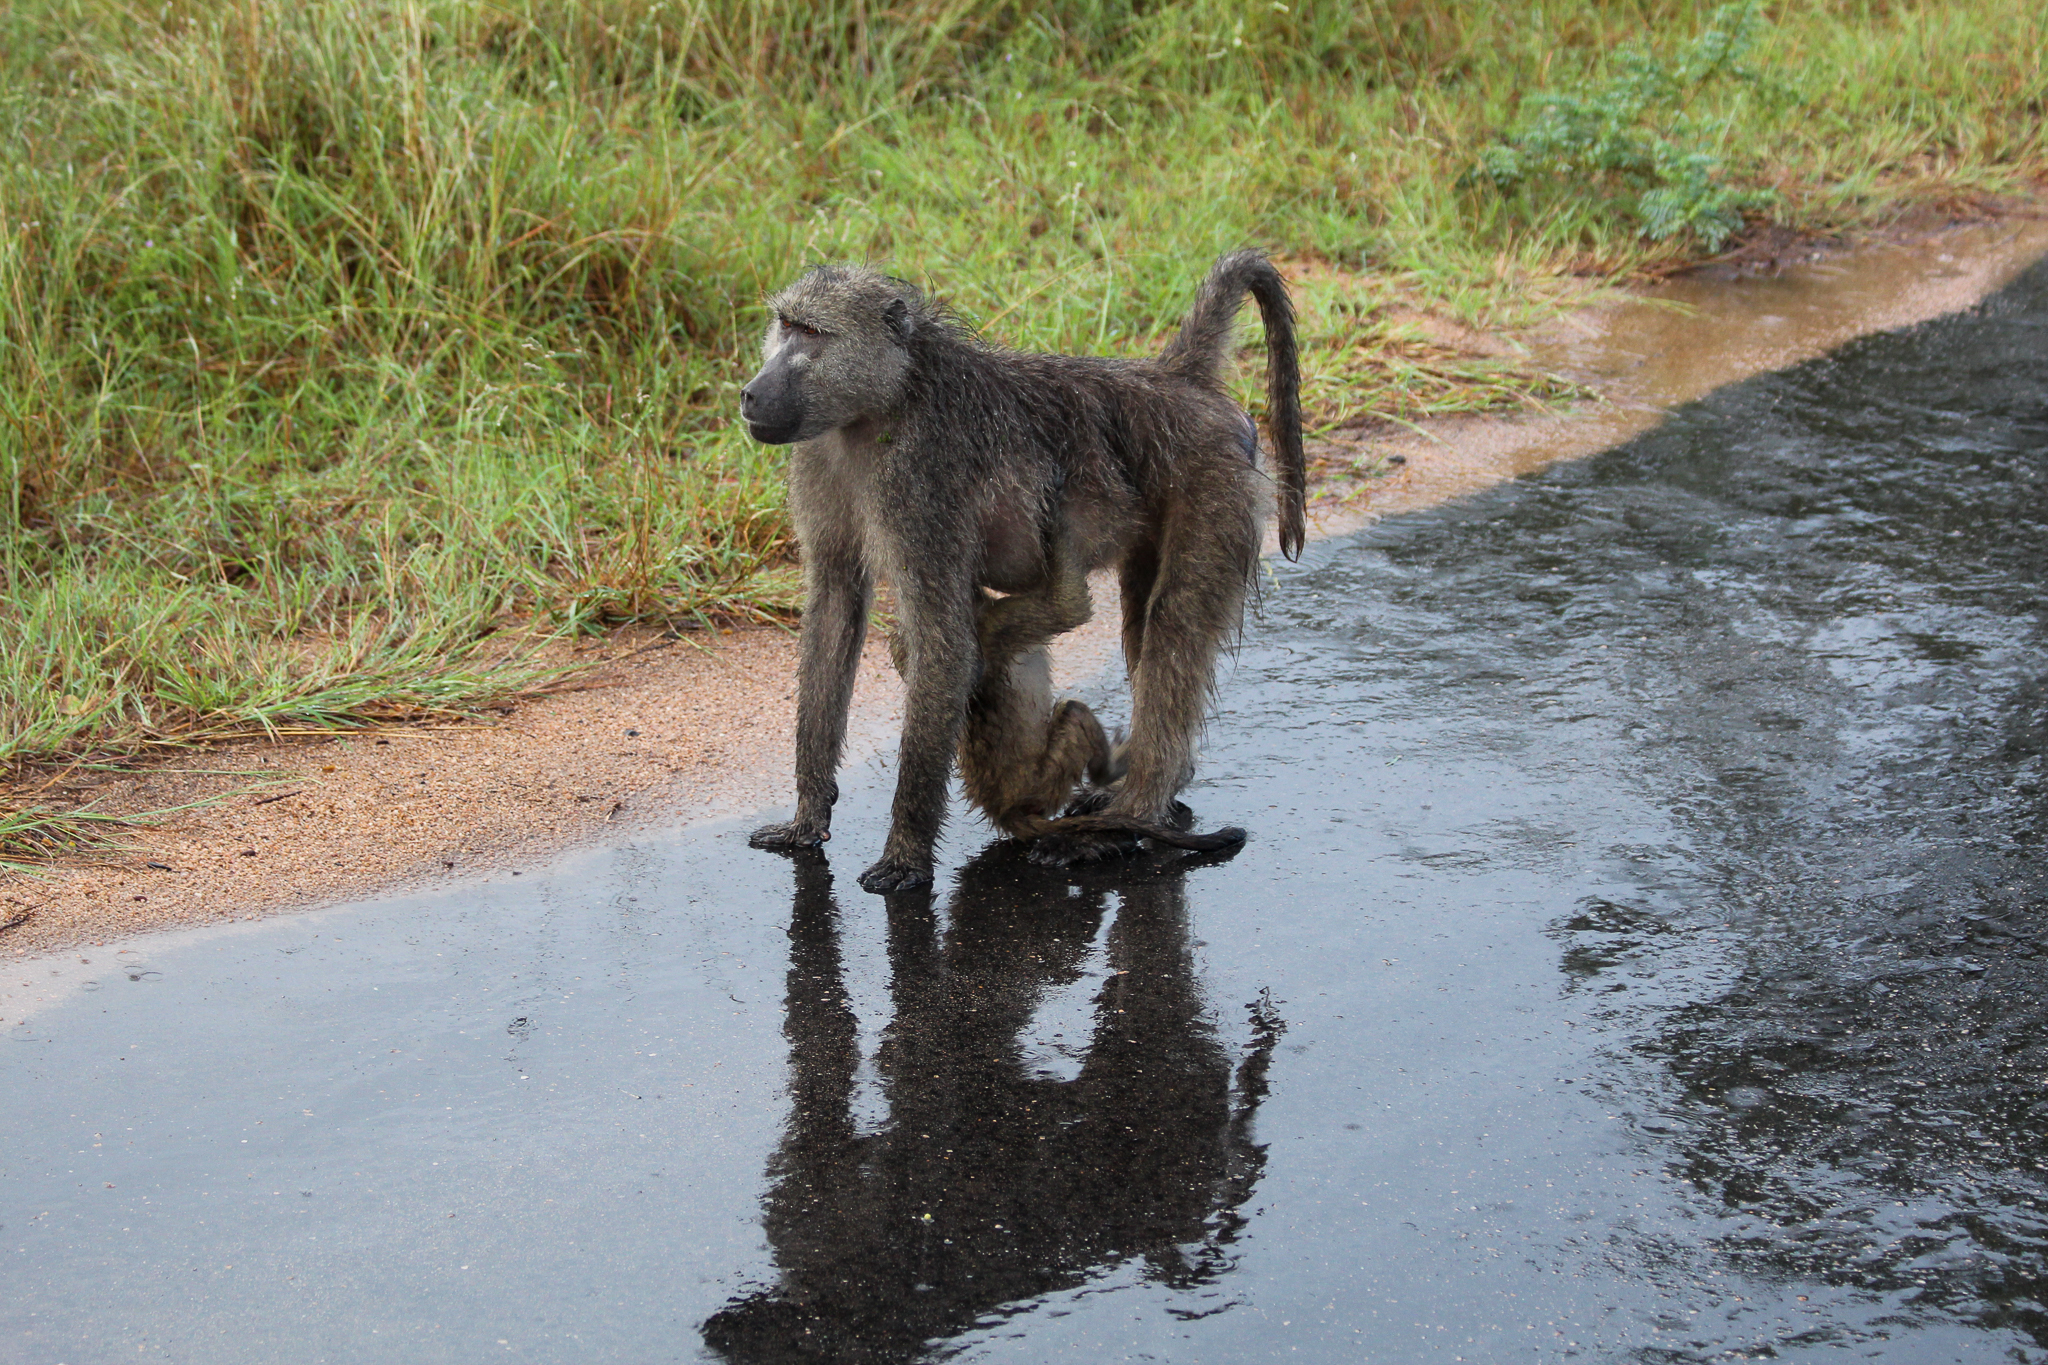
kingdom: Animalia
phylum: Chordata
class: Mammalia
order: Primates
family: Cercopithecidae
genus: Papio
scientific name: Papio ursinus
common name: Chacma baboon
